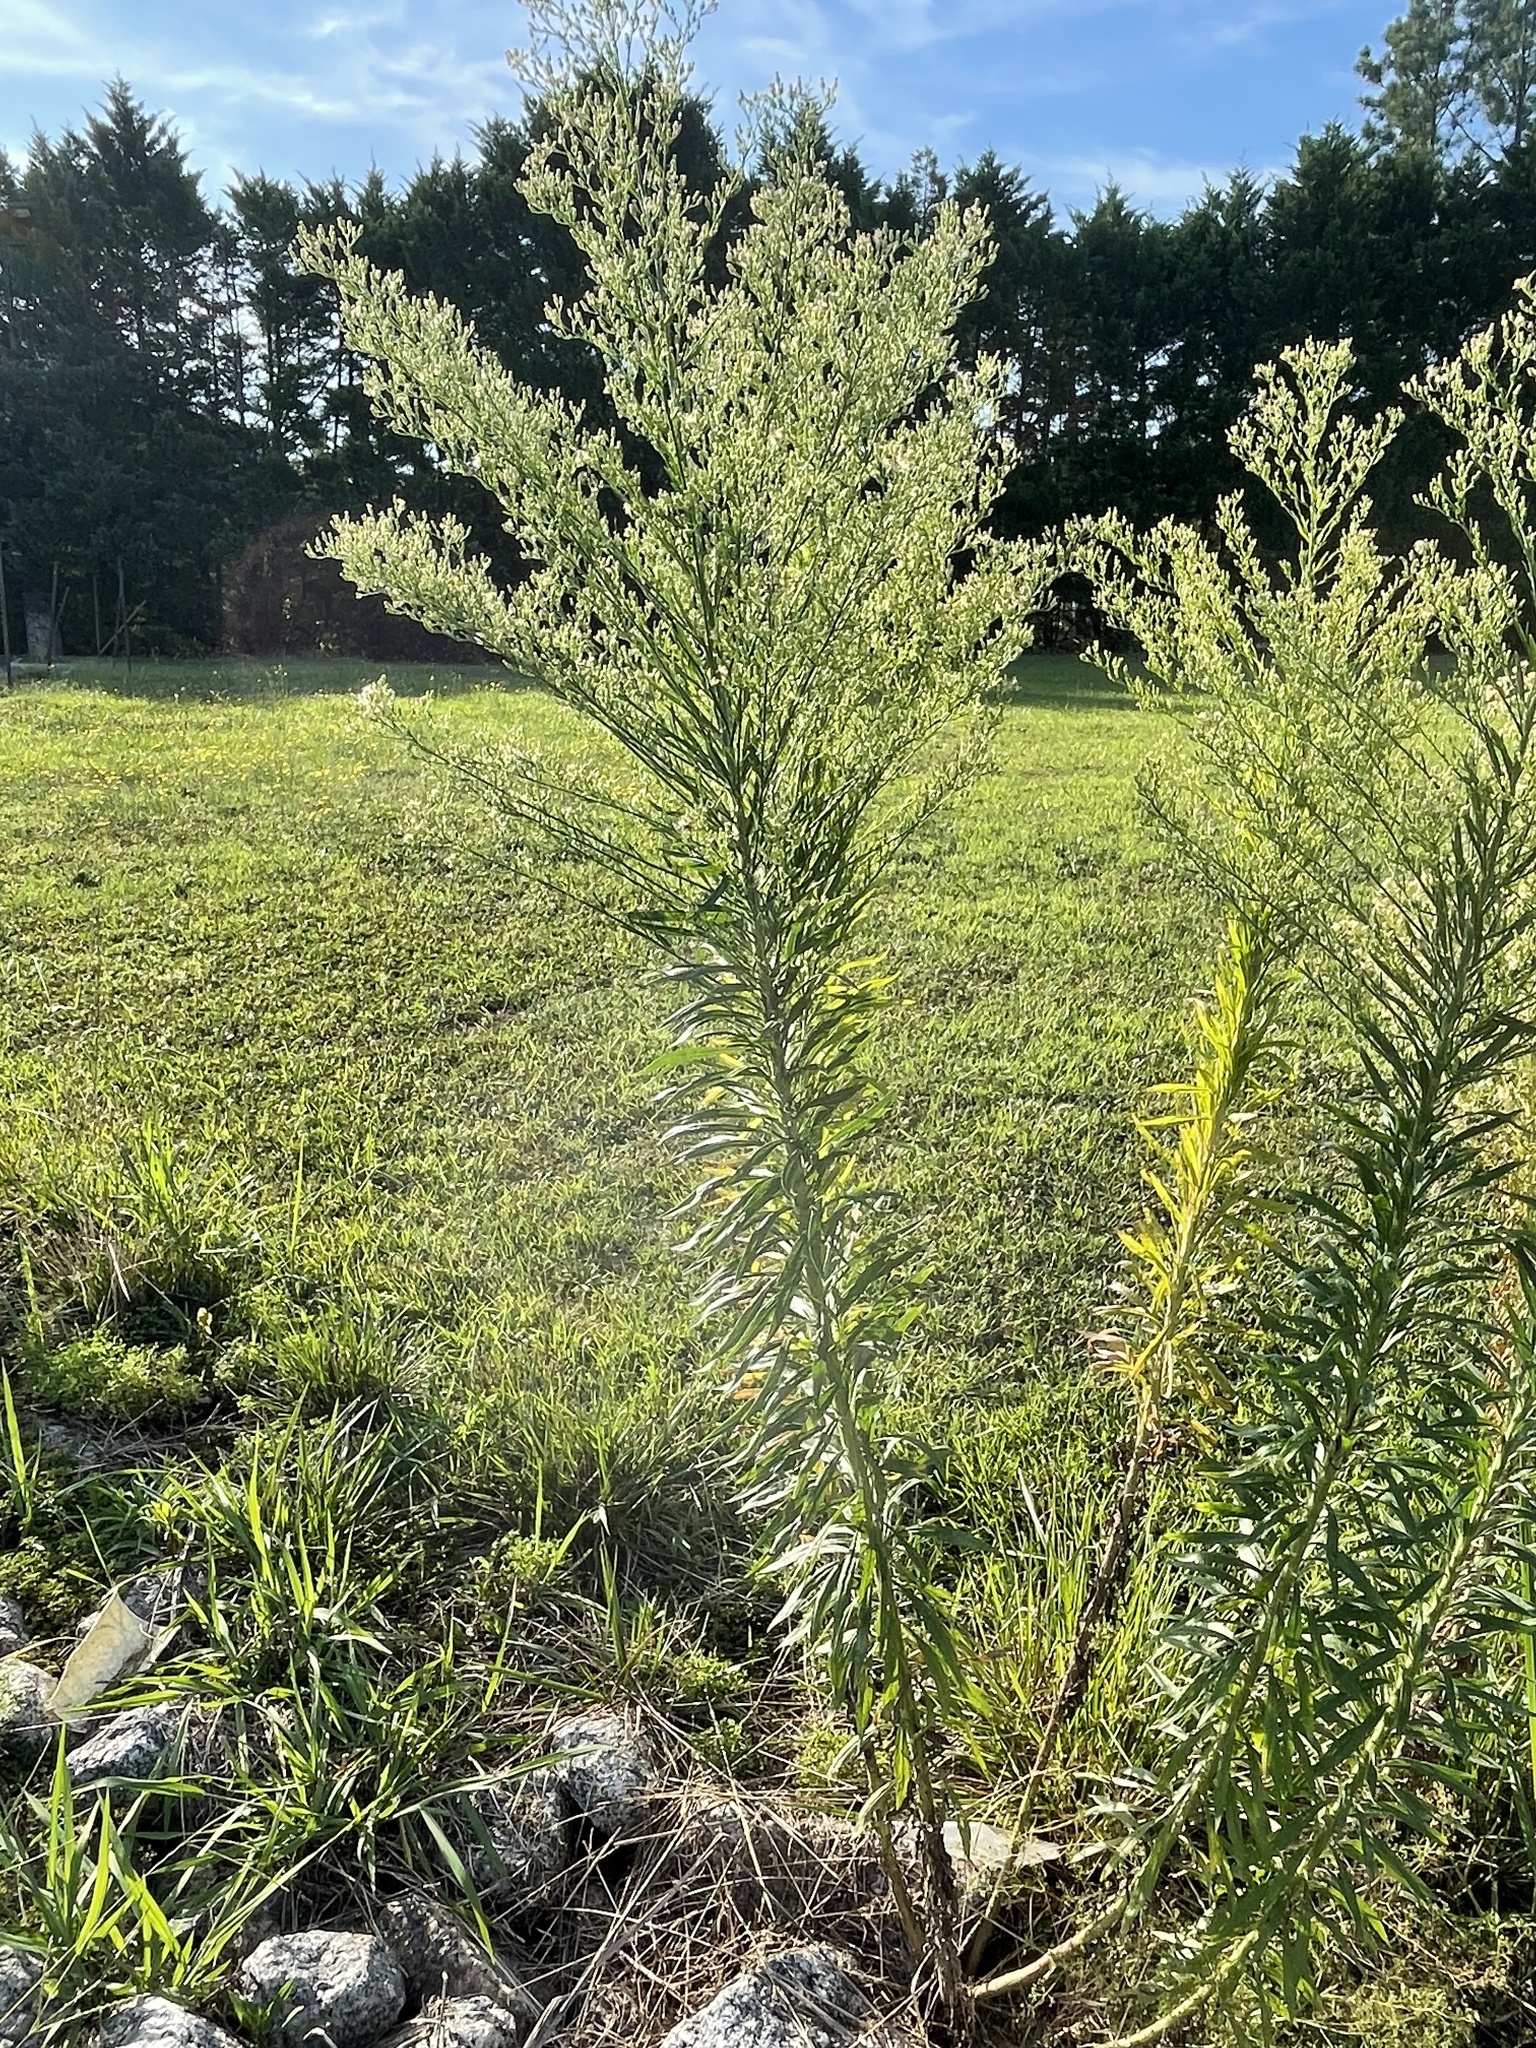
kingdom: Plantae
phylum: Tracheophyta
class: Magnoliopsida
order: Asterales
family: Asteraceae
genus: Erigeron
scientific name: Erigeron canadensis
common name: Canadian fleabane
